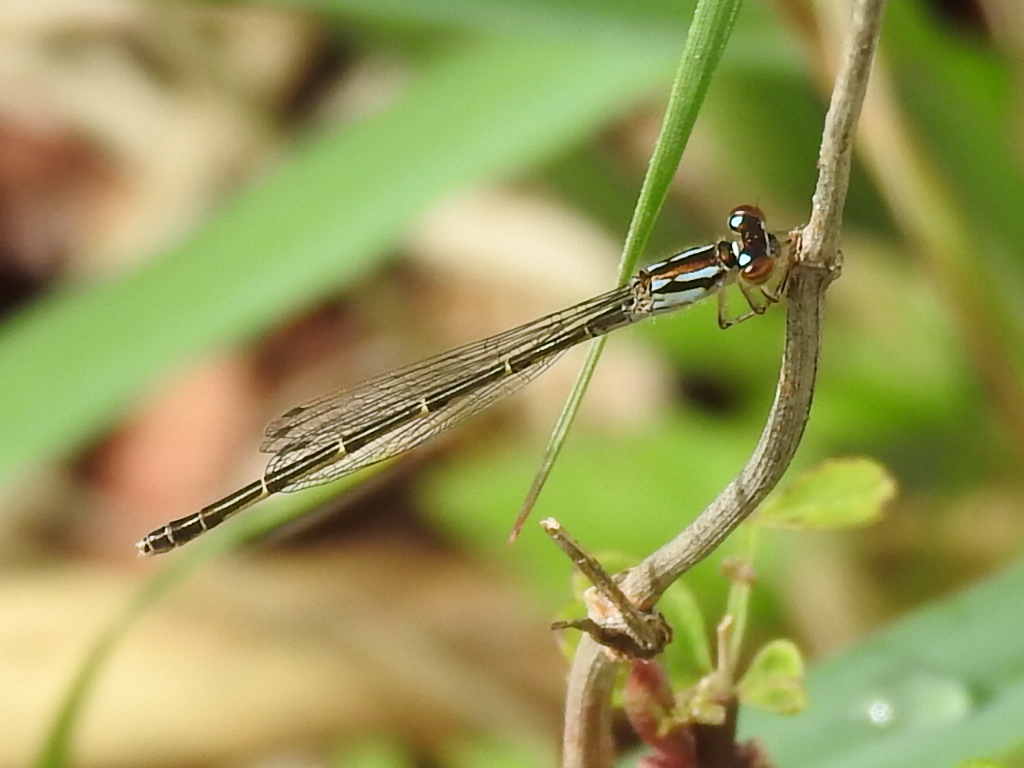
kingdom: Animalia
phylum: Arthropoda
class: Insecta
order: Odonata
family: Coenagrionidae
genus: Ischnura
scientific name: Ischnura posita
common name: Fragile forktail
